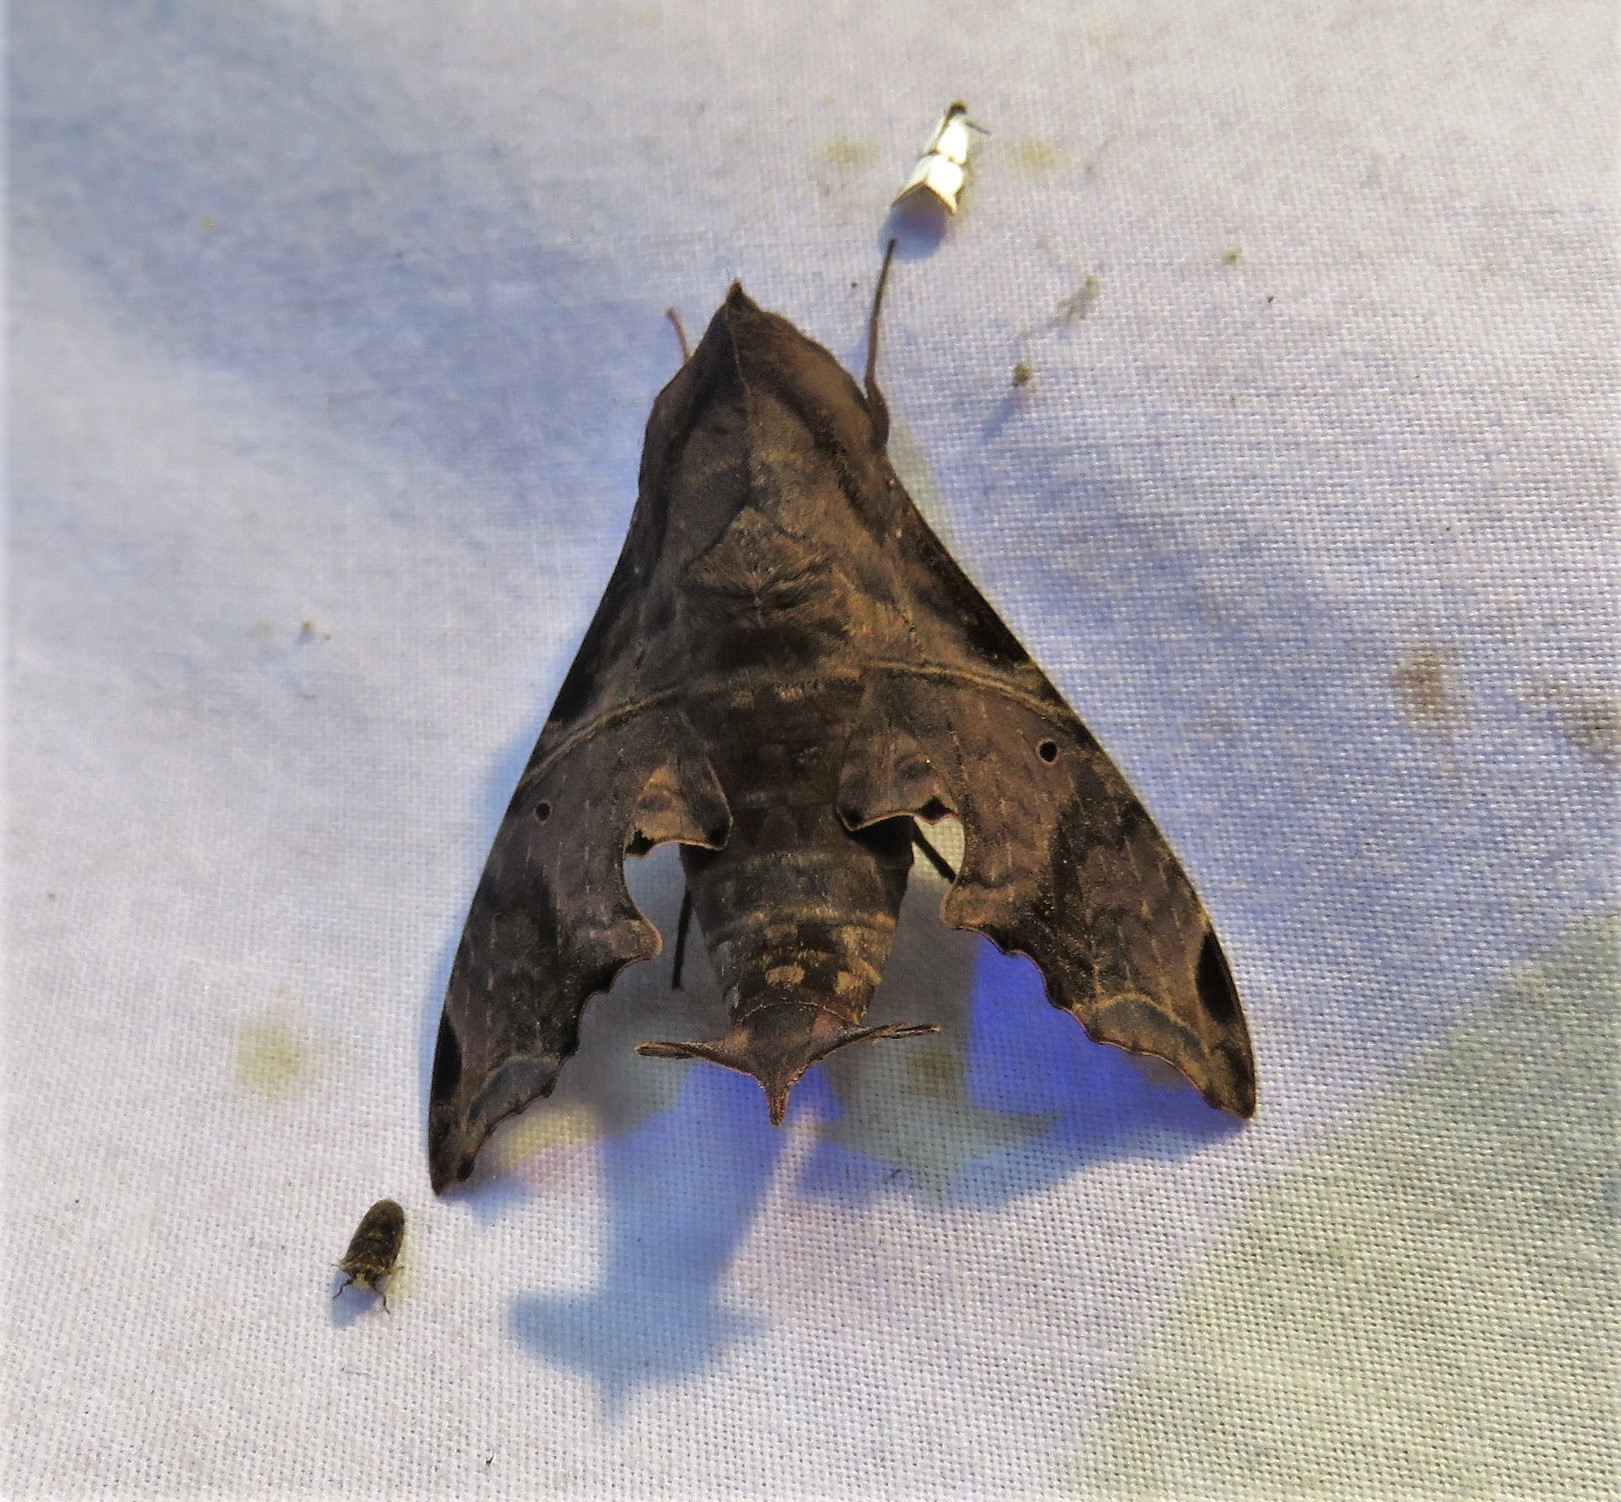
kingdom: Animalia
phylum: Arthropoda
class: Insecta
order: Lepidoptera
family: Sphingidae
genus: Enyo
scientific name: Enyo lugubris
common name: Mournful sphinx
